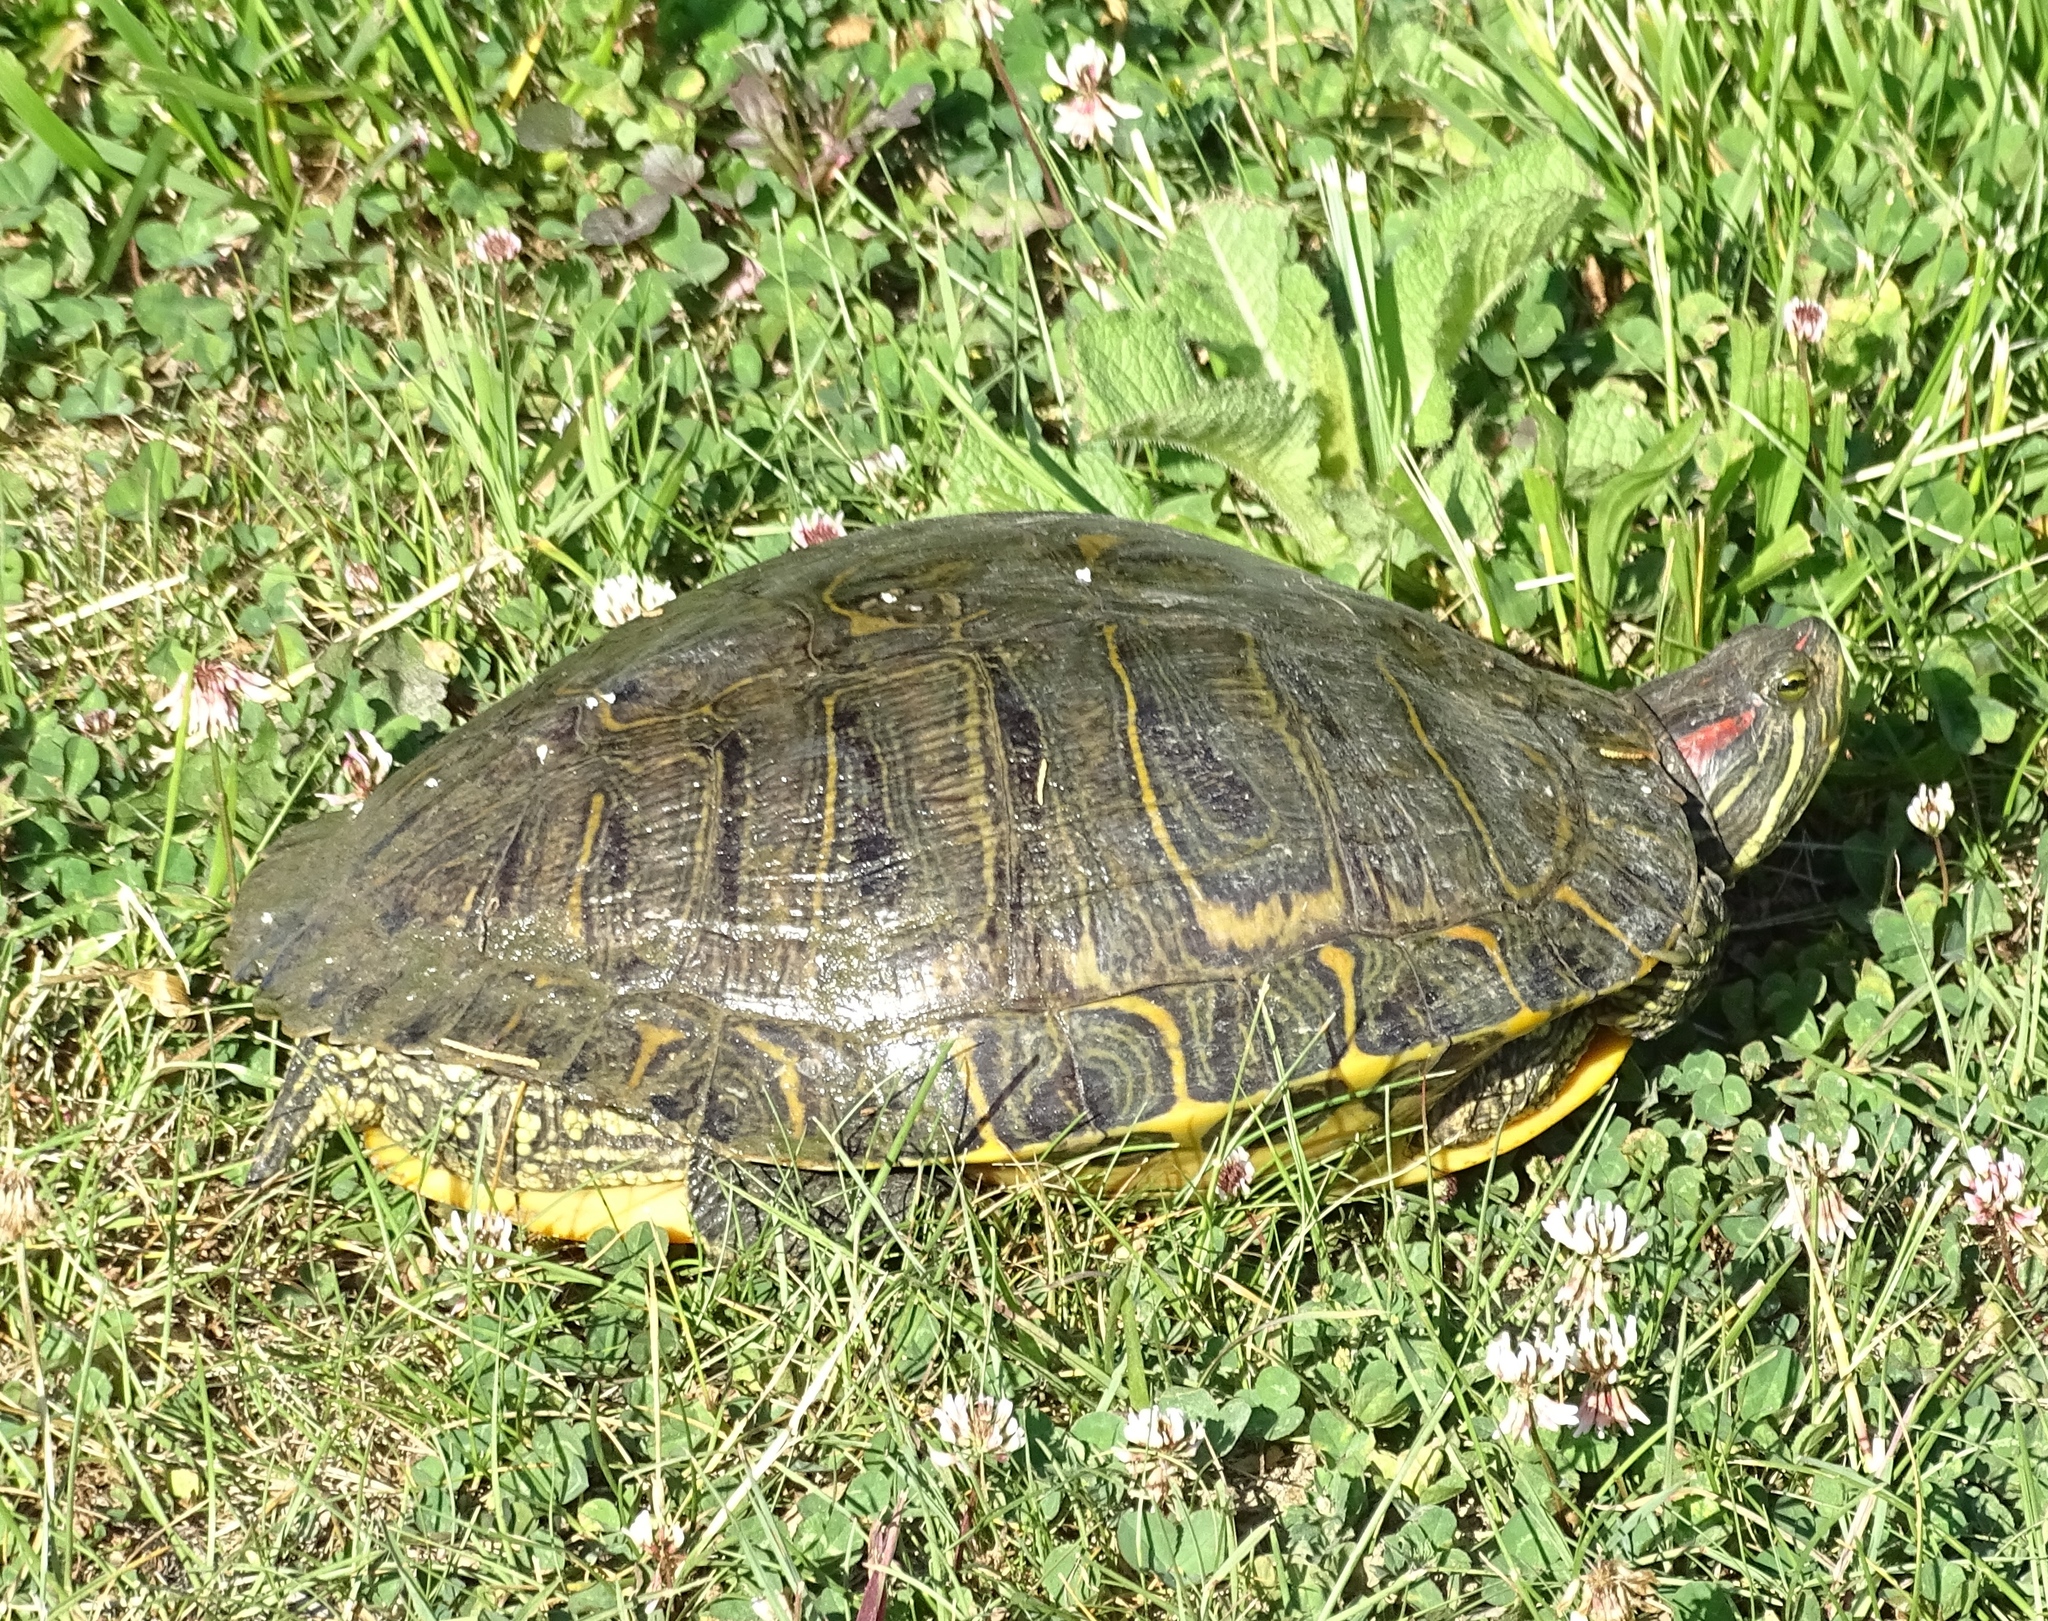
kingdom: Animalia
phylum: Chordata
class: Testudines
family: Emydidae
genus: Trachemys
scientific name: Trachemys scripta
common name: Slider
